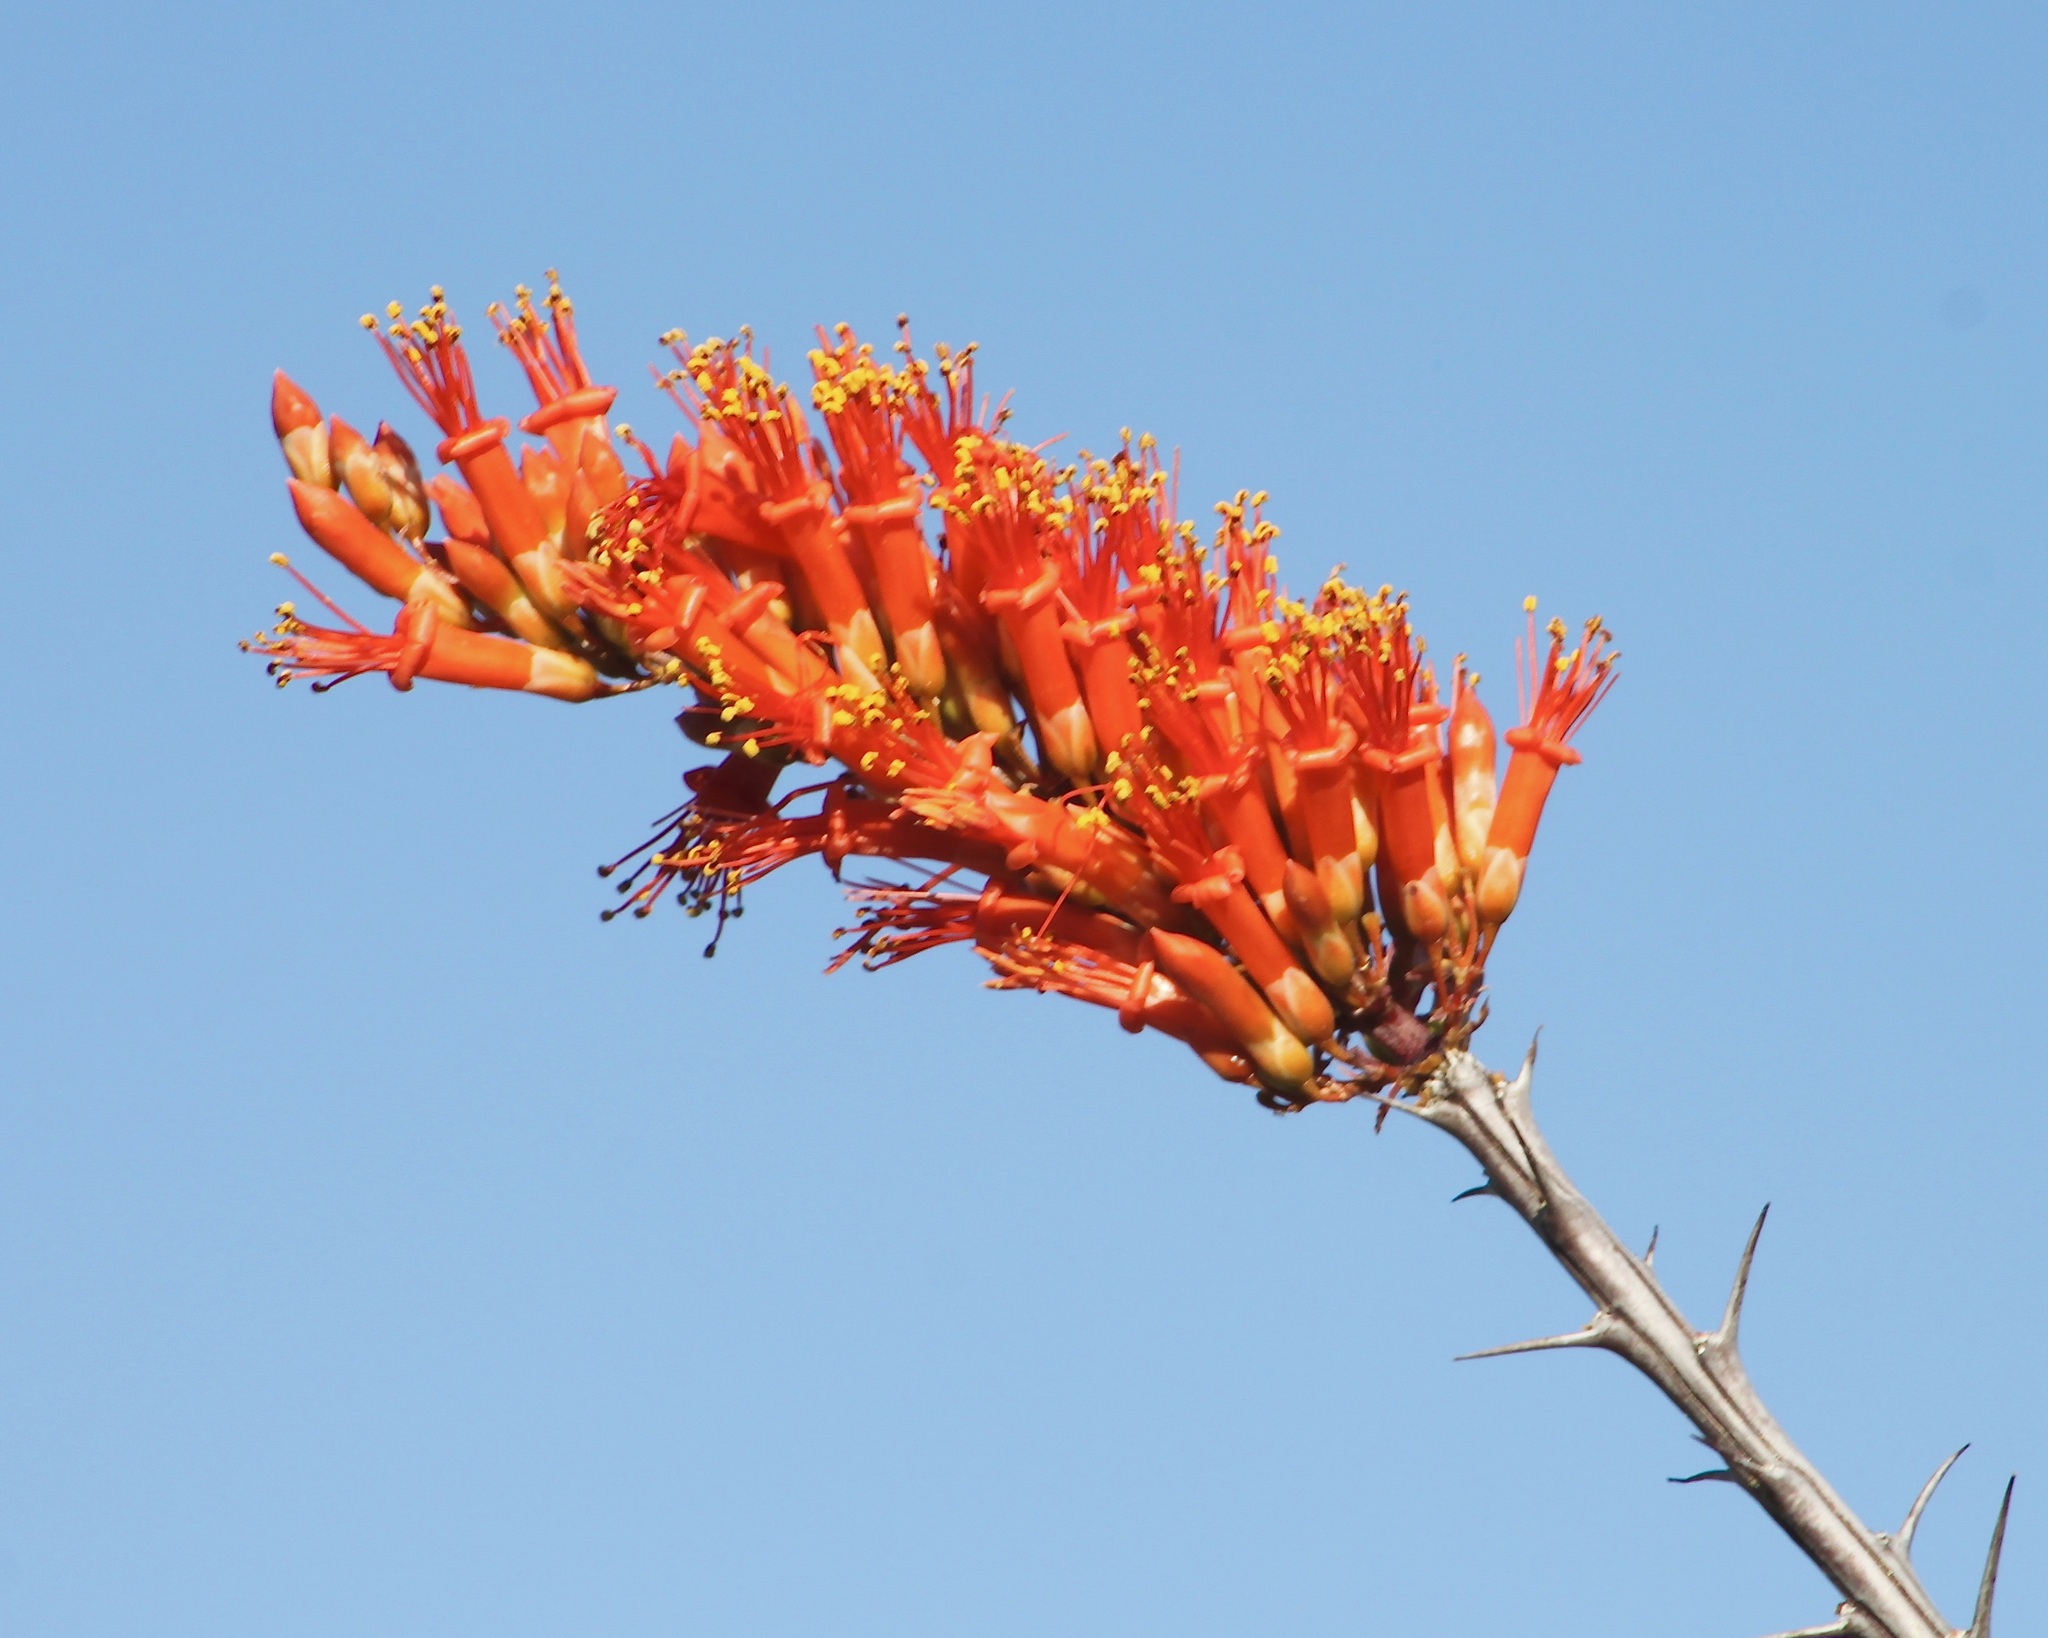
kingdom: Plantae
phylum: Tracheophyta
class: Magnoliopsida
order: Ericales
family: Fouquieriaceae
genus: Fouquieria
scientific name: Fouquieria splendens
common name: Vine-cactus
